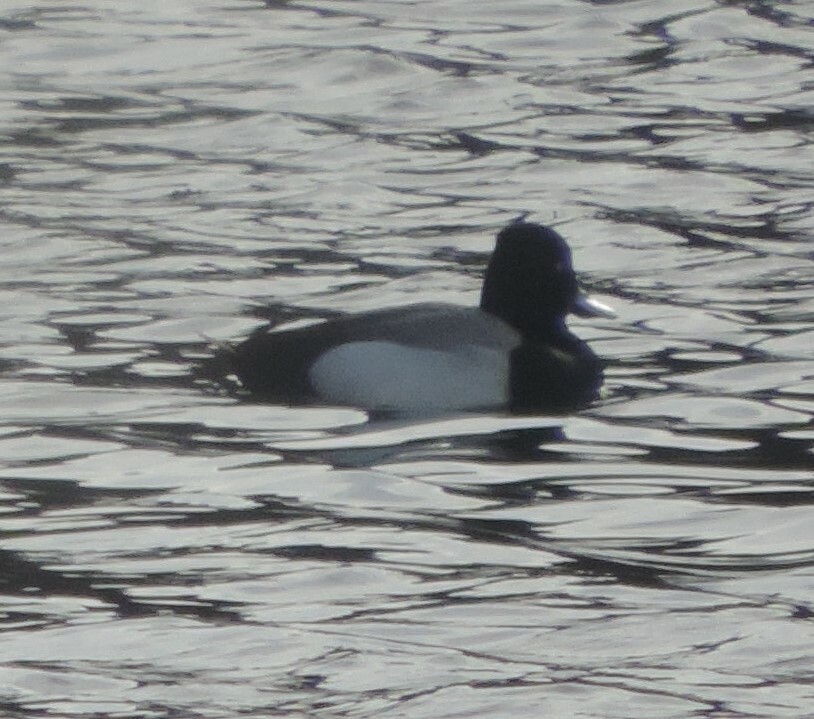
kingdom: Animalia
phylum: Chordata
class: Aves
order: Anseriformes
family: Anatidae
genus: Aythya
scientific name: Aythya affinis
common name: Lesser scaup
